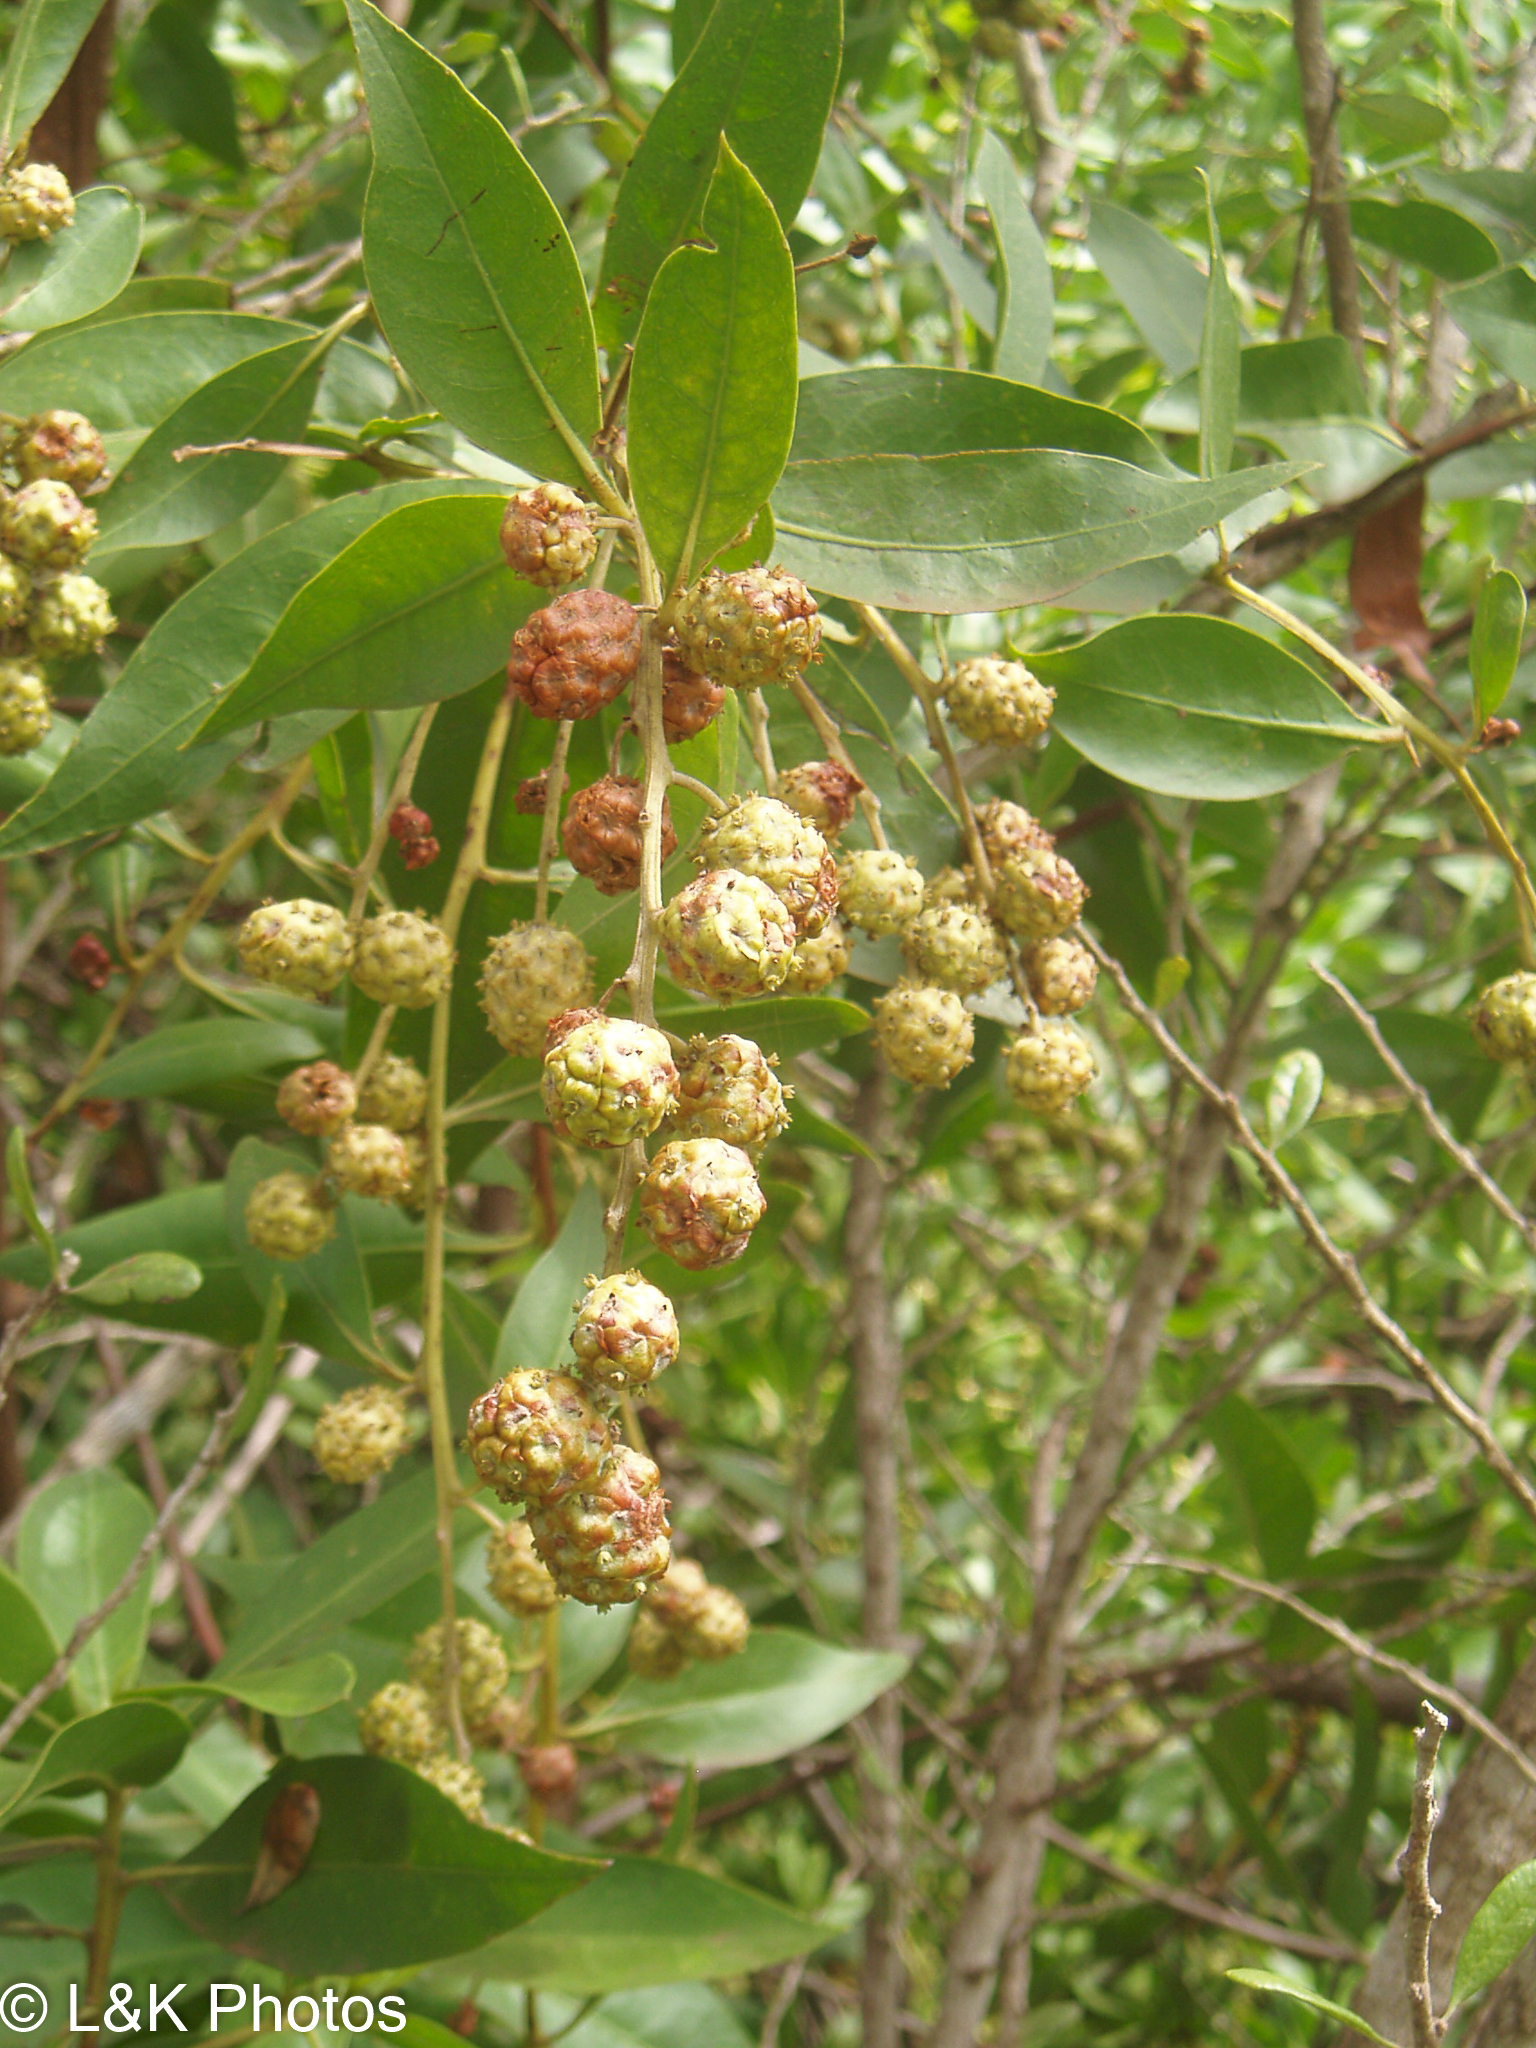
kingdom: Plantae
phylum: Tracheophyta
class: Magnoliopsida
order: Myrtales
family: Combretaceae
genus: Conocarpus
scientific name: Conocarpus erectus
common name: Button mangrove
